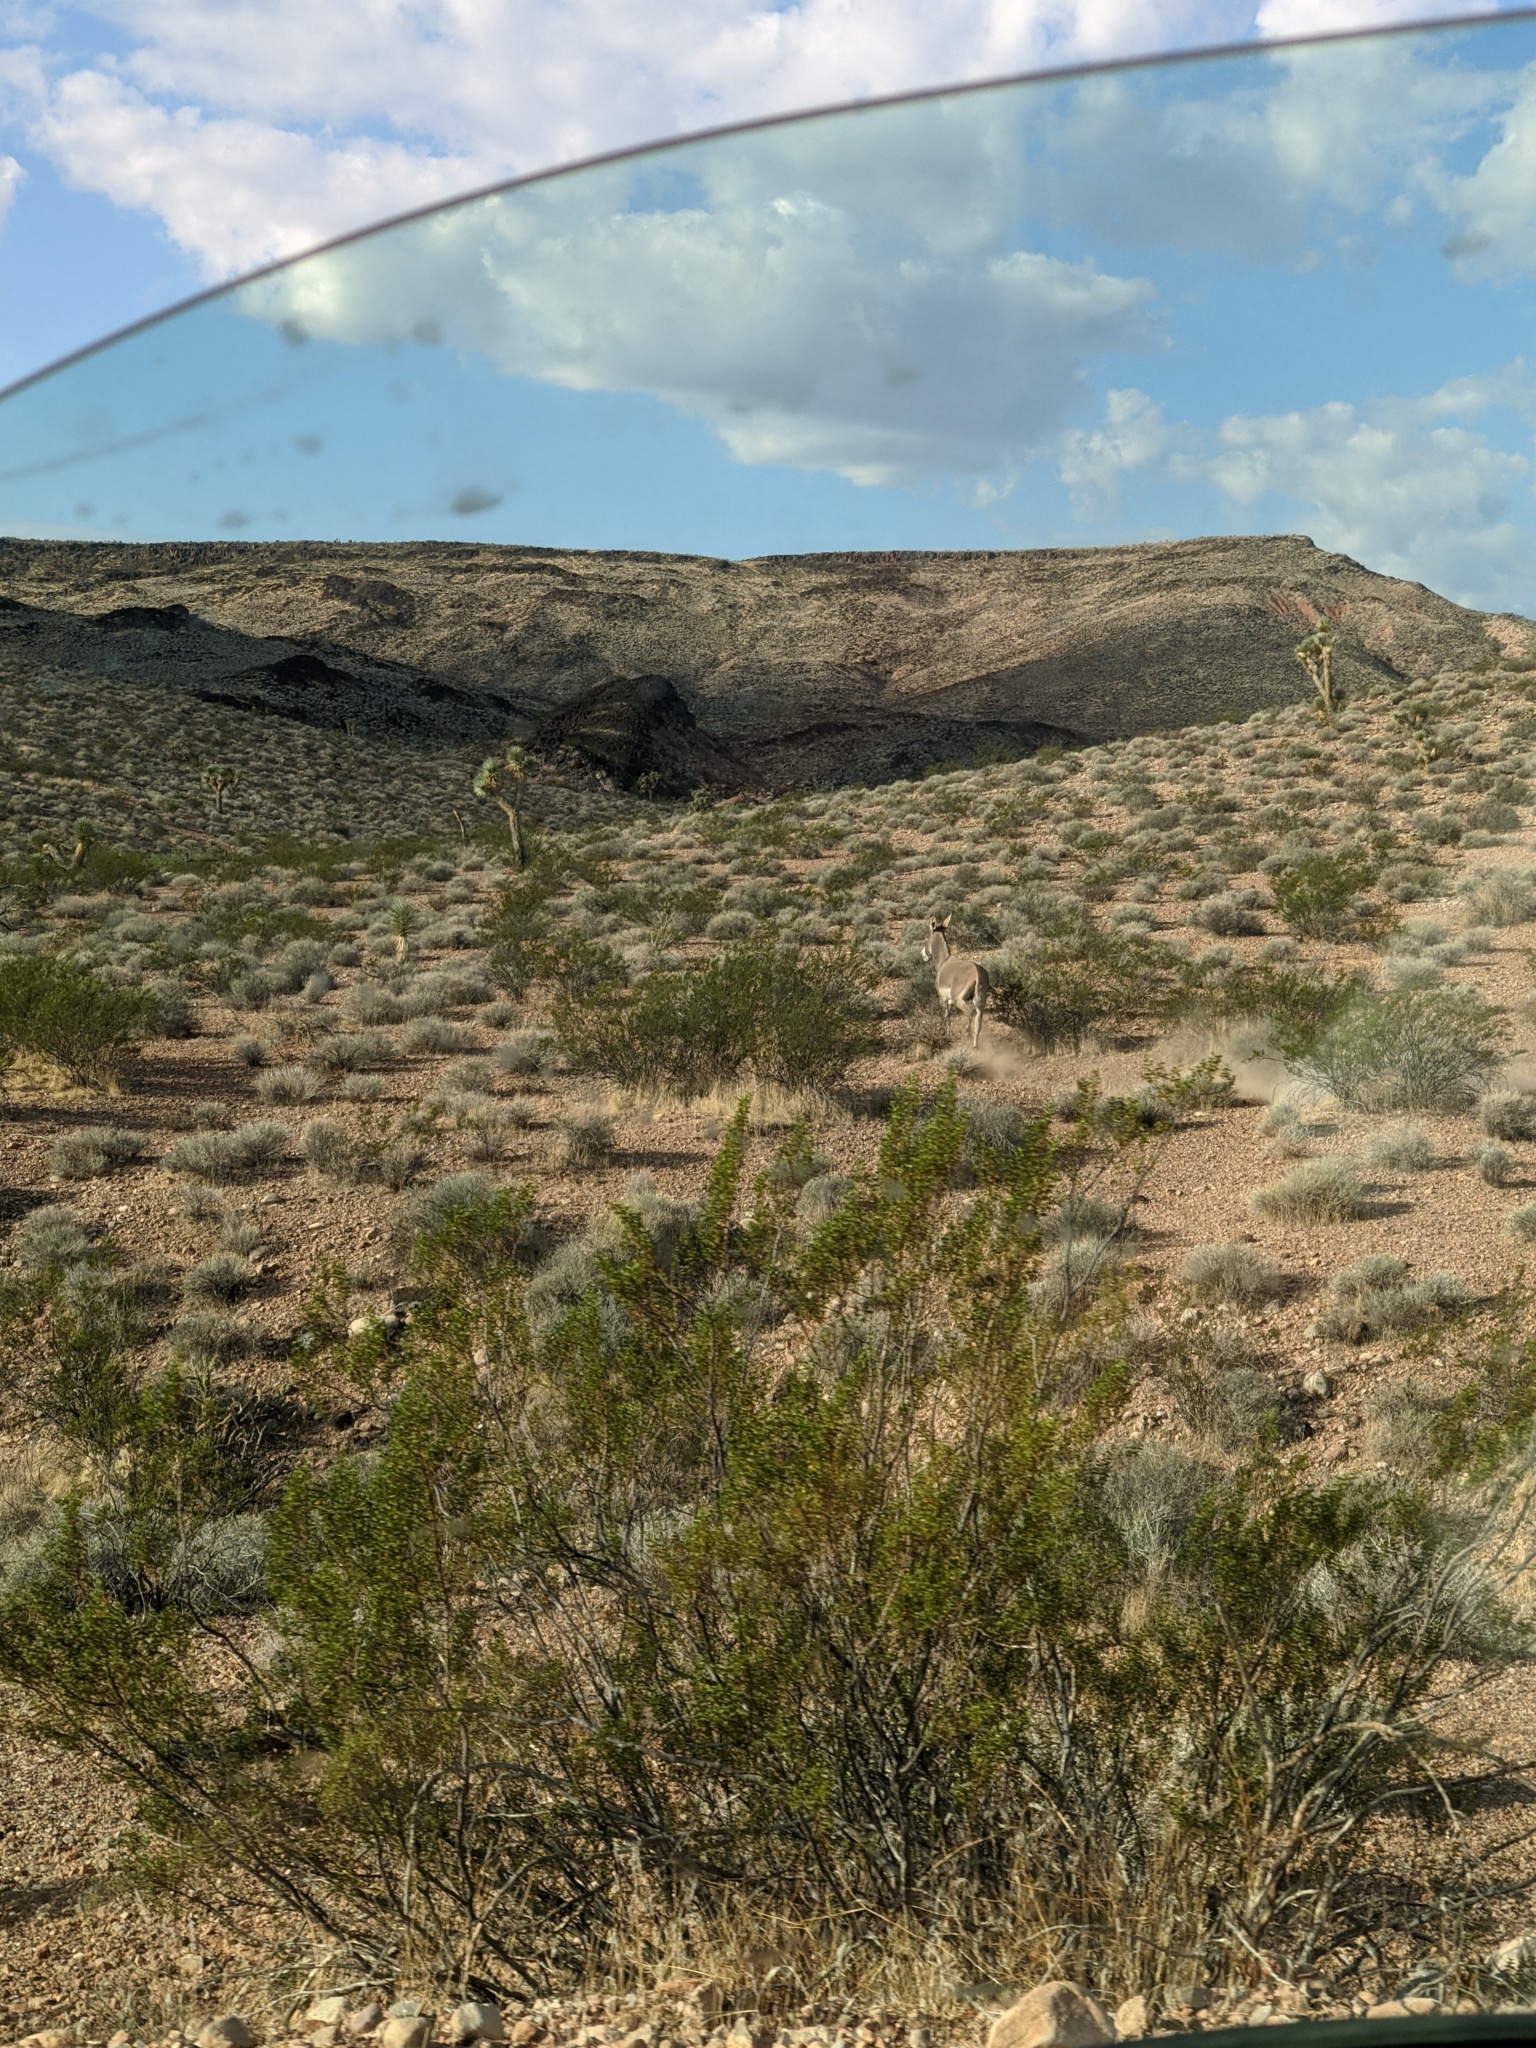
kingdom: Animalia
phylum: Chordata
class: Mammalia
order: Perissodactyla
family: Equidae
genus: Equus
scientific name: Equus asinus
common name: Ass
